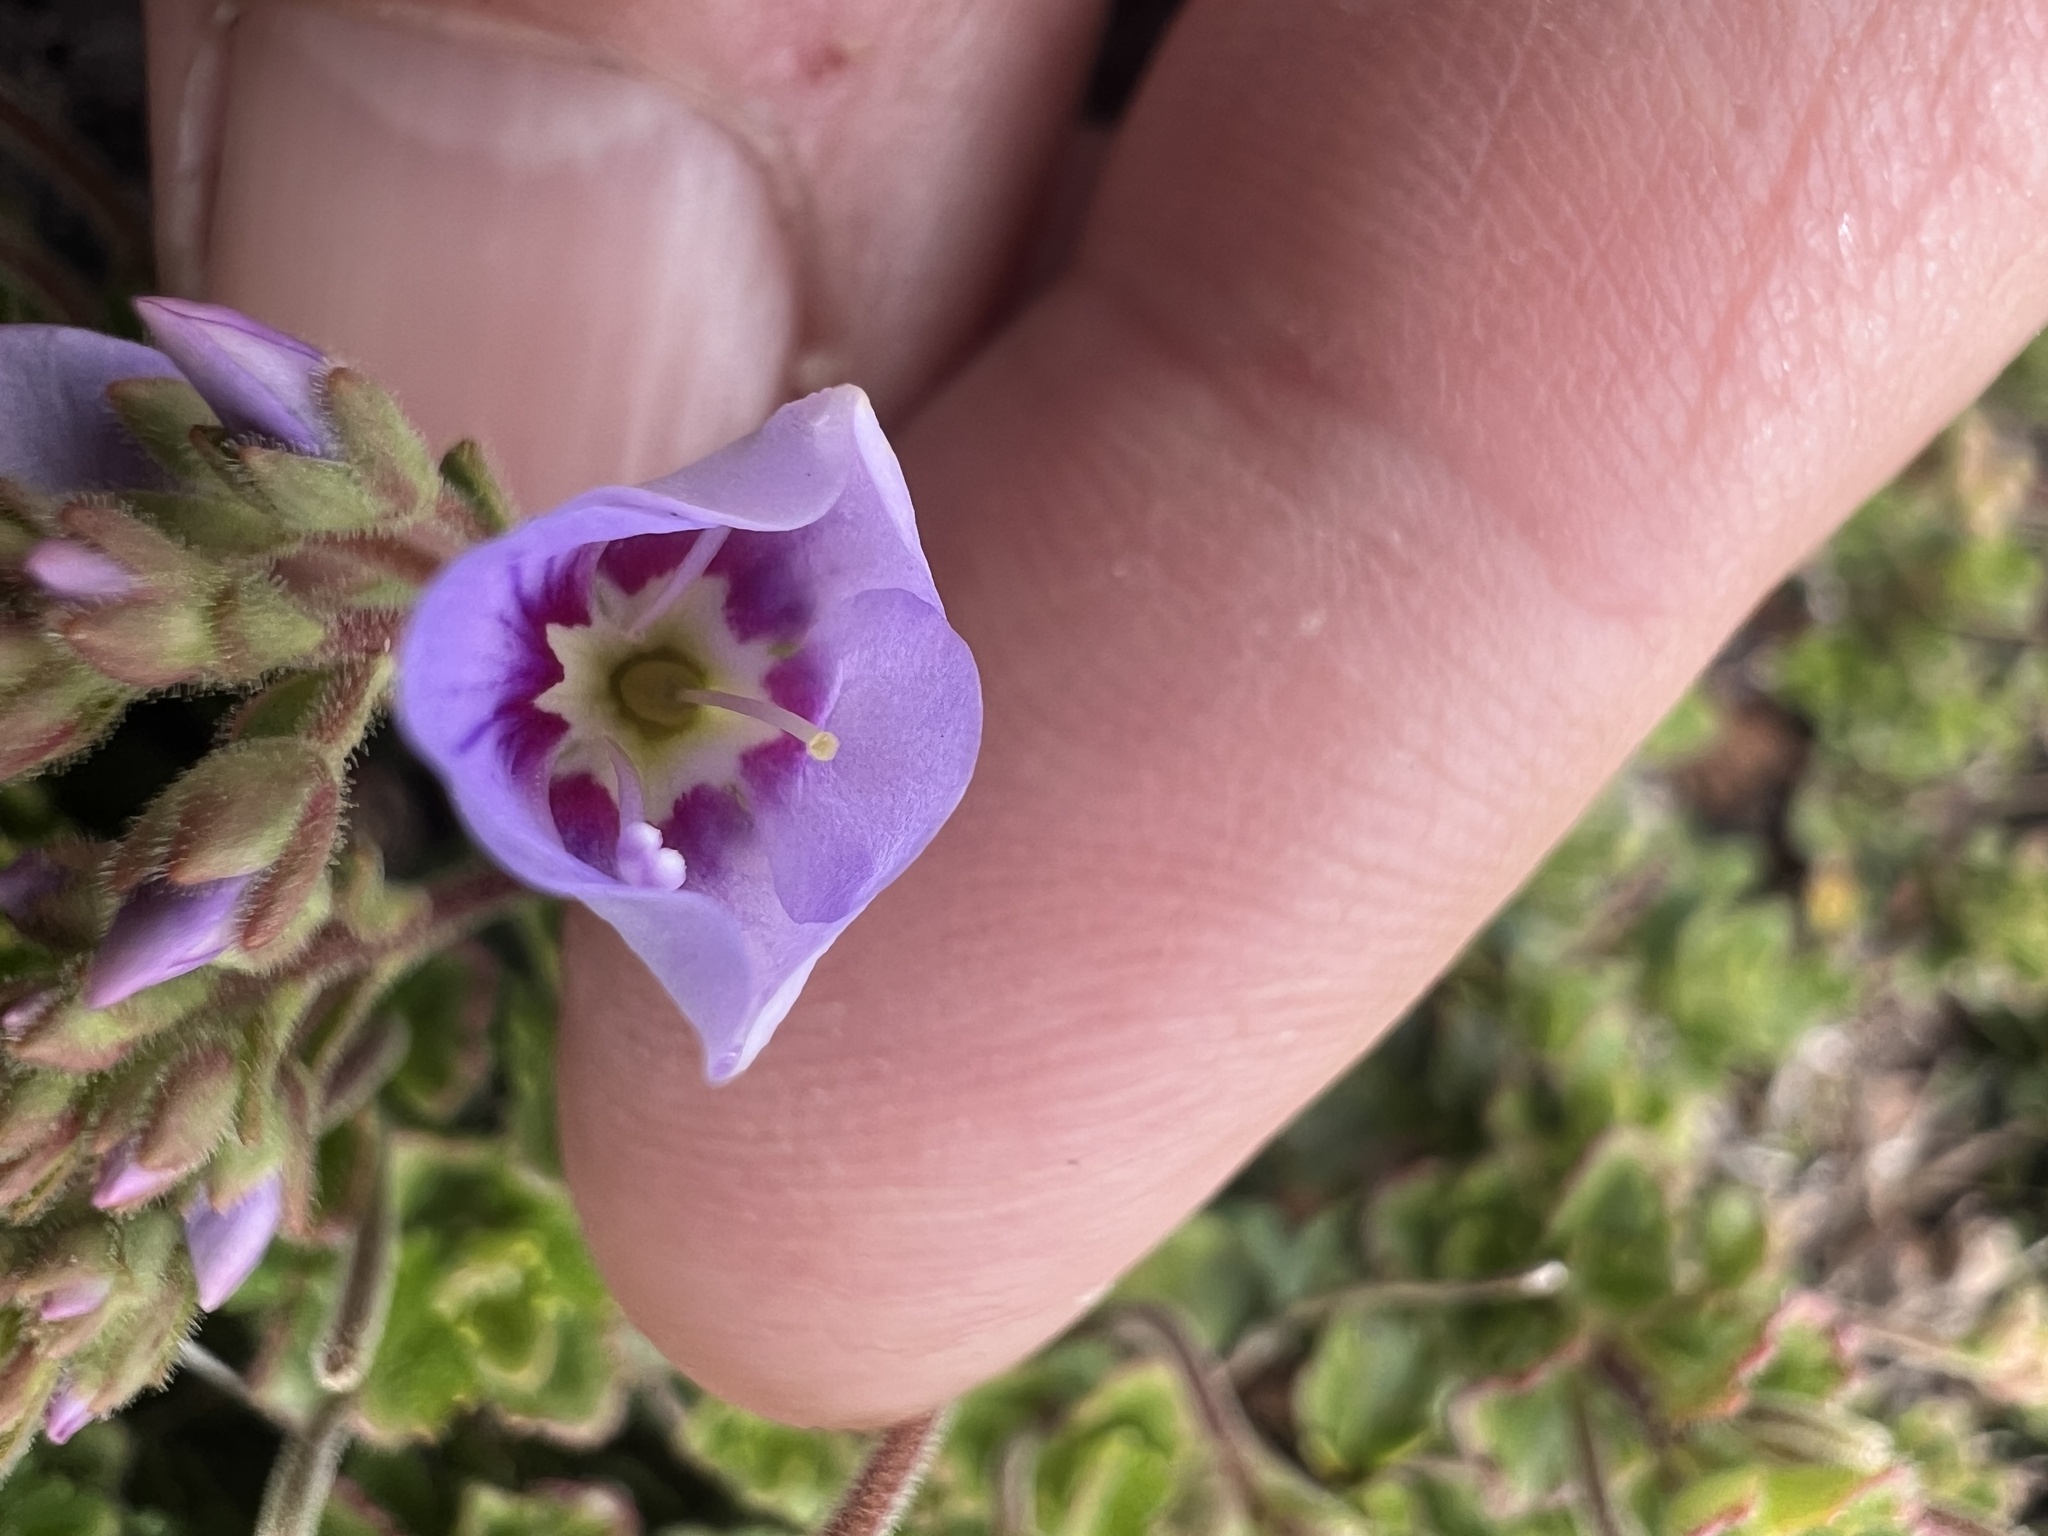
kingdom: Plantae
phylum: Tracheophyta
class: Magnoliopsida
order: Lamiales
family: Plantaginaceae
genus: Veronica
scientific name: Veronica hookeriana
